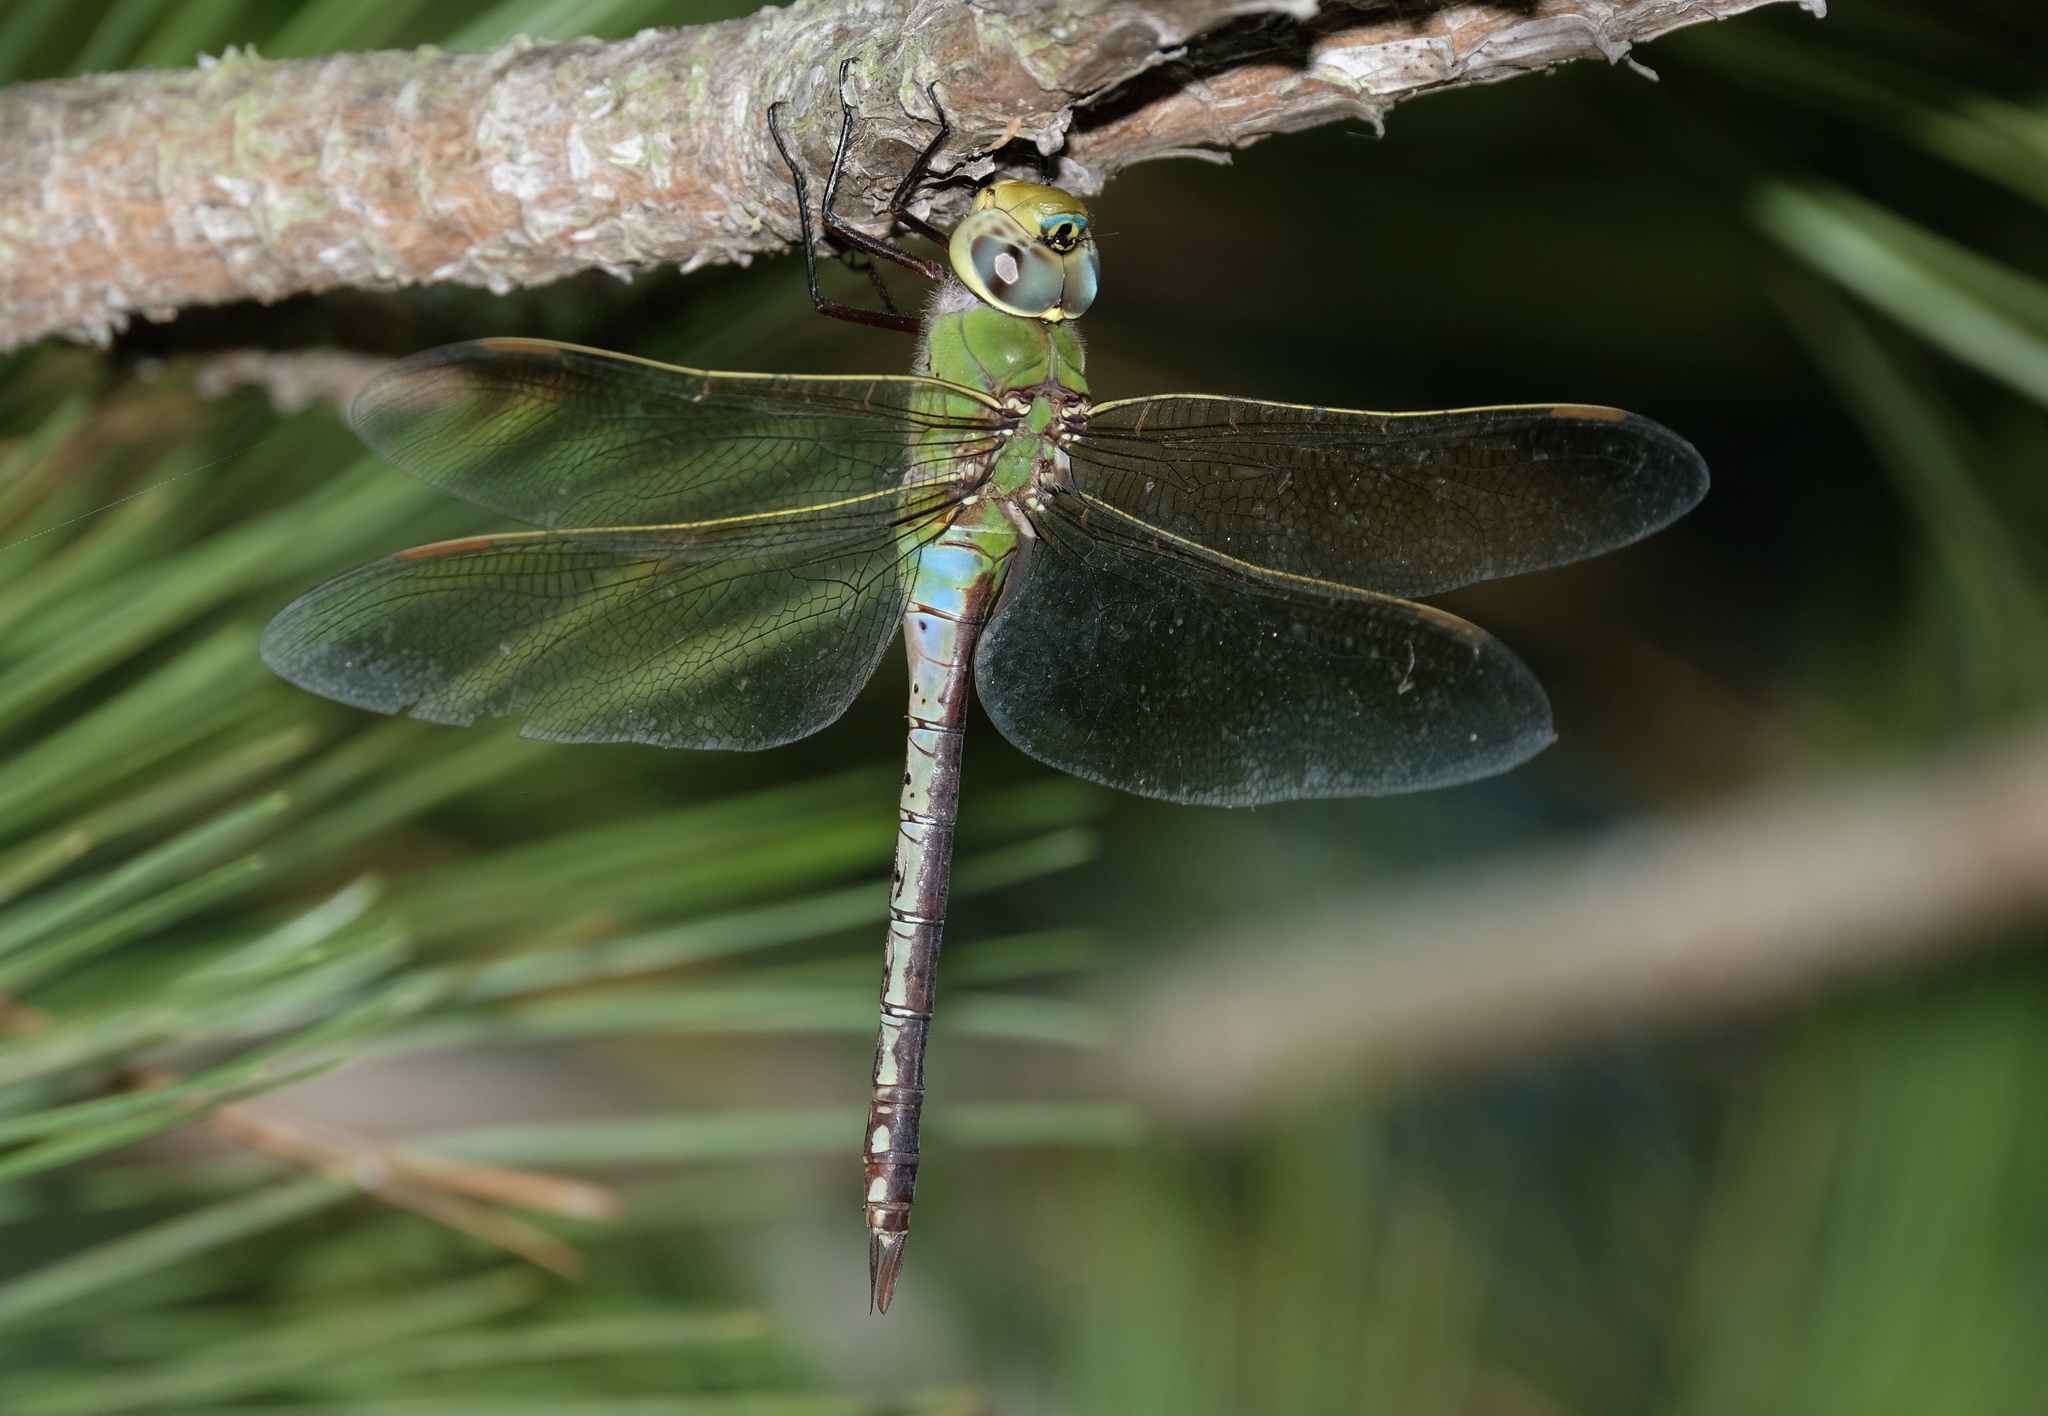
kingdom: Animalia
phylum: Arthropoda
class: Insecta
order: Odonata
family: Aeshnidae
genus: Anax
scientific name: Anax junius
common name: Common green darner
